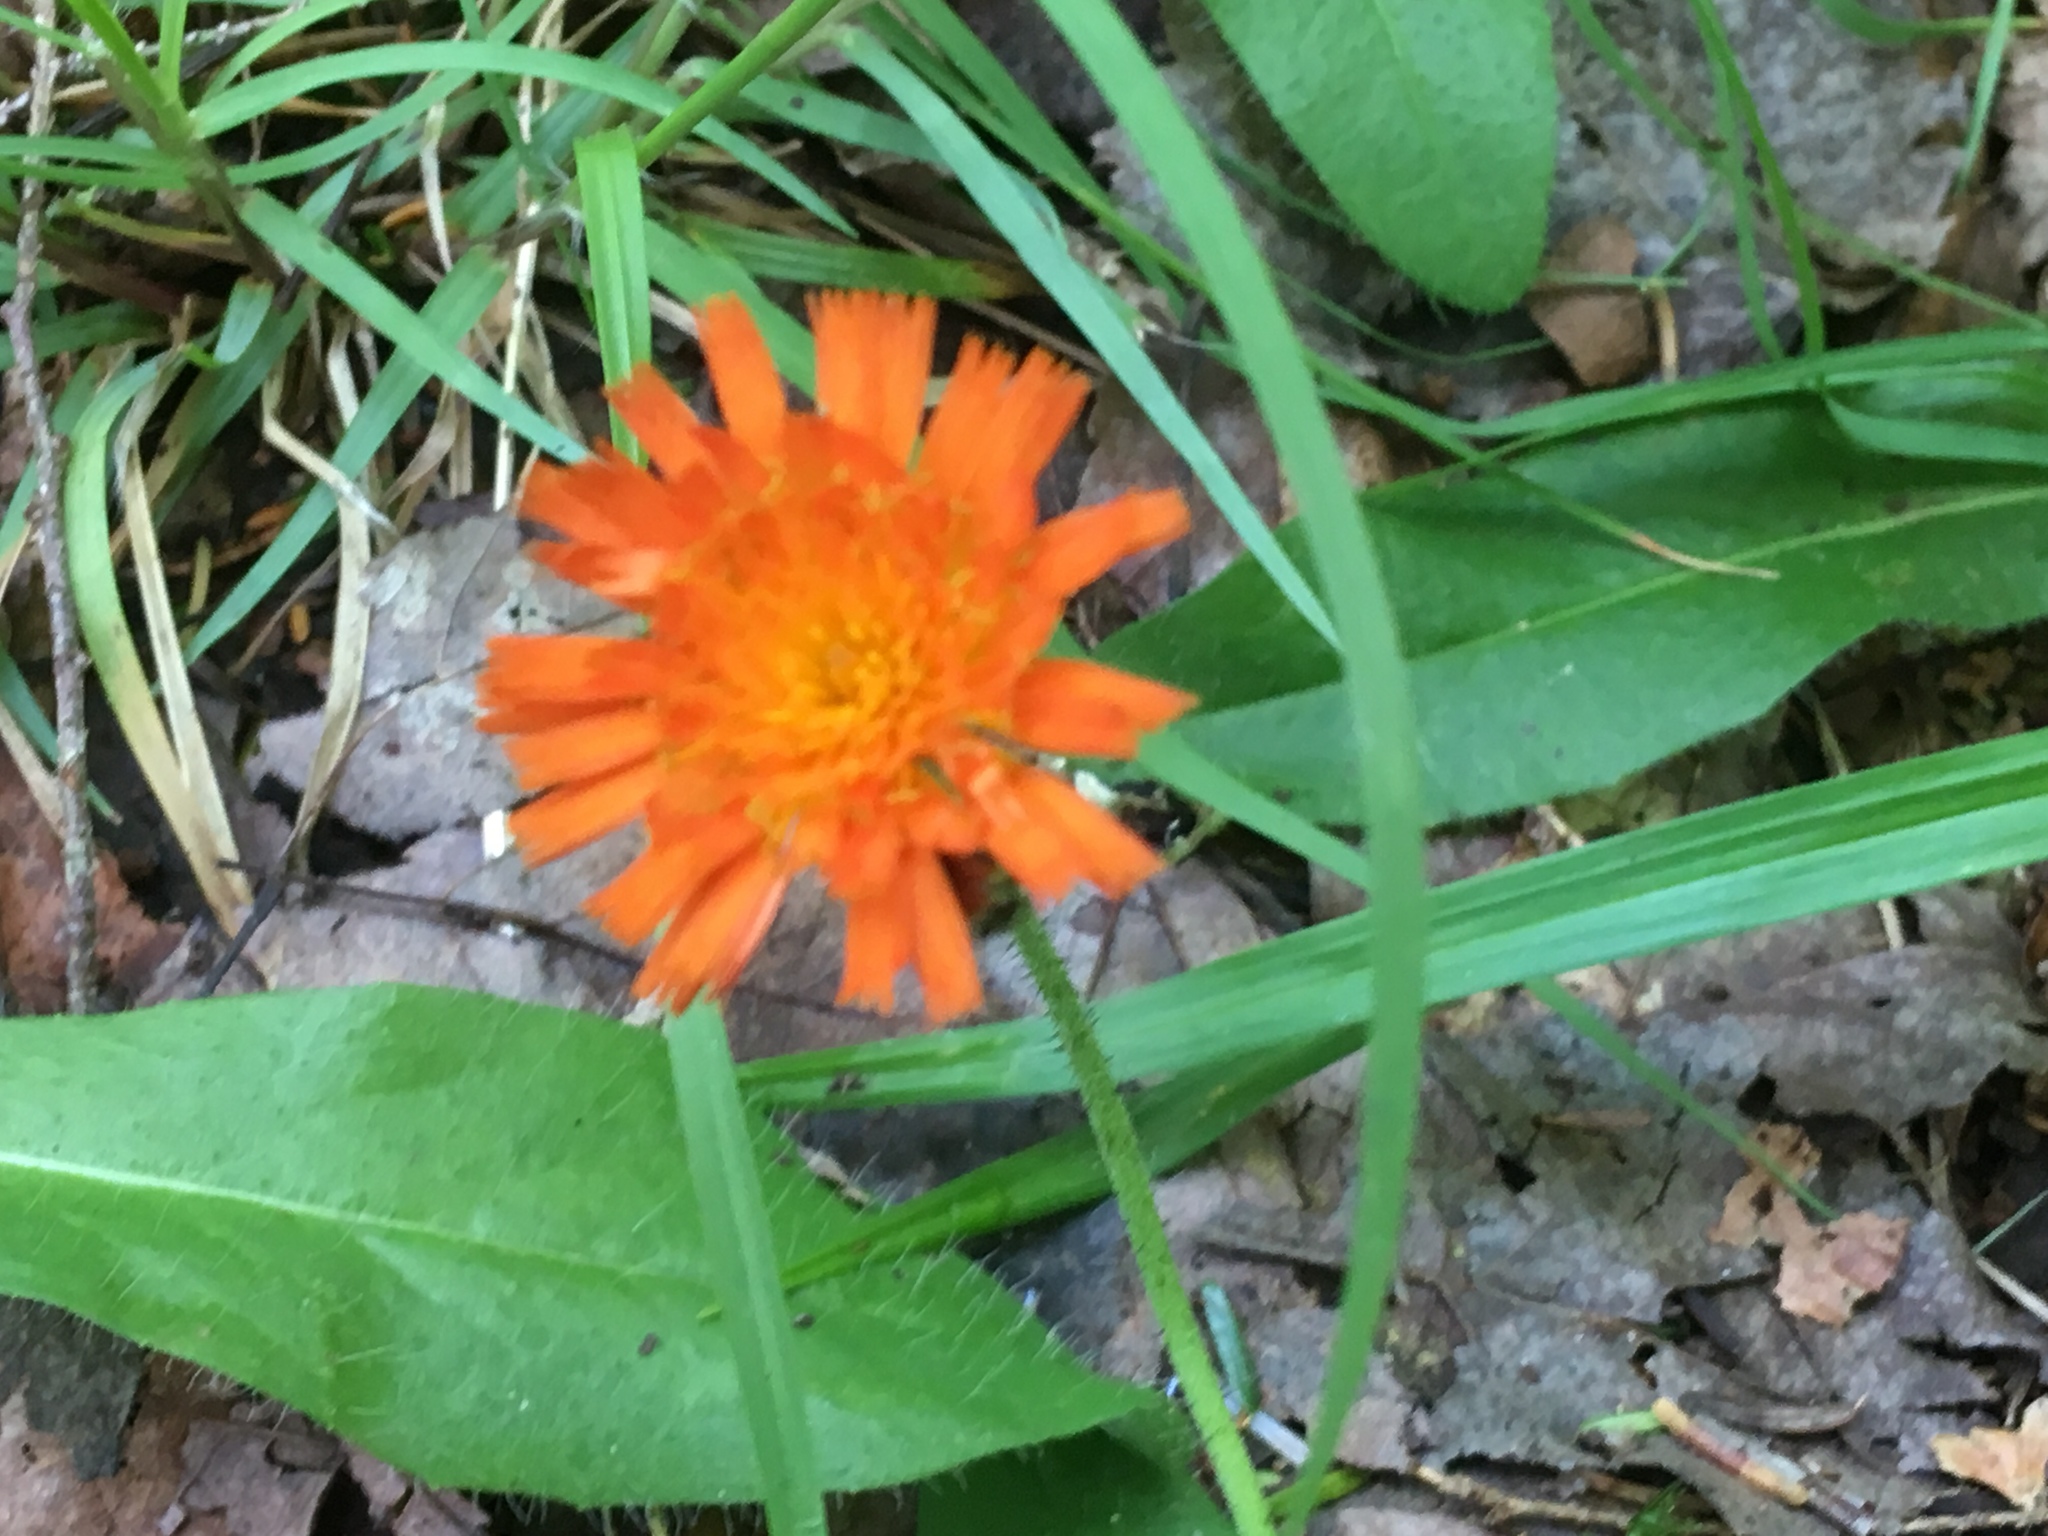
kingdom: Plantae
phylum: Tracheophyta
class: Magnoliopsida
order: Asterales
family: Asteraceae
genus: Pilosella
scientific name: Pilosella aurantiaca
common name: Fox-and-cubs
